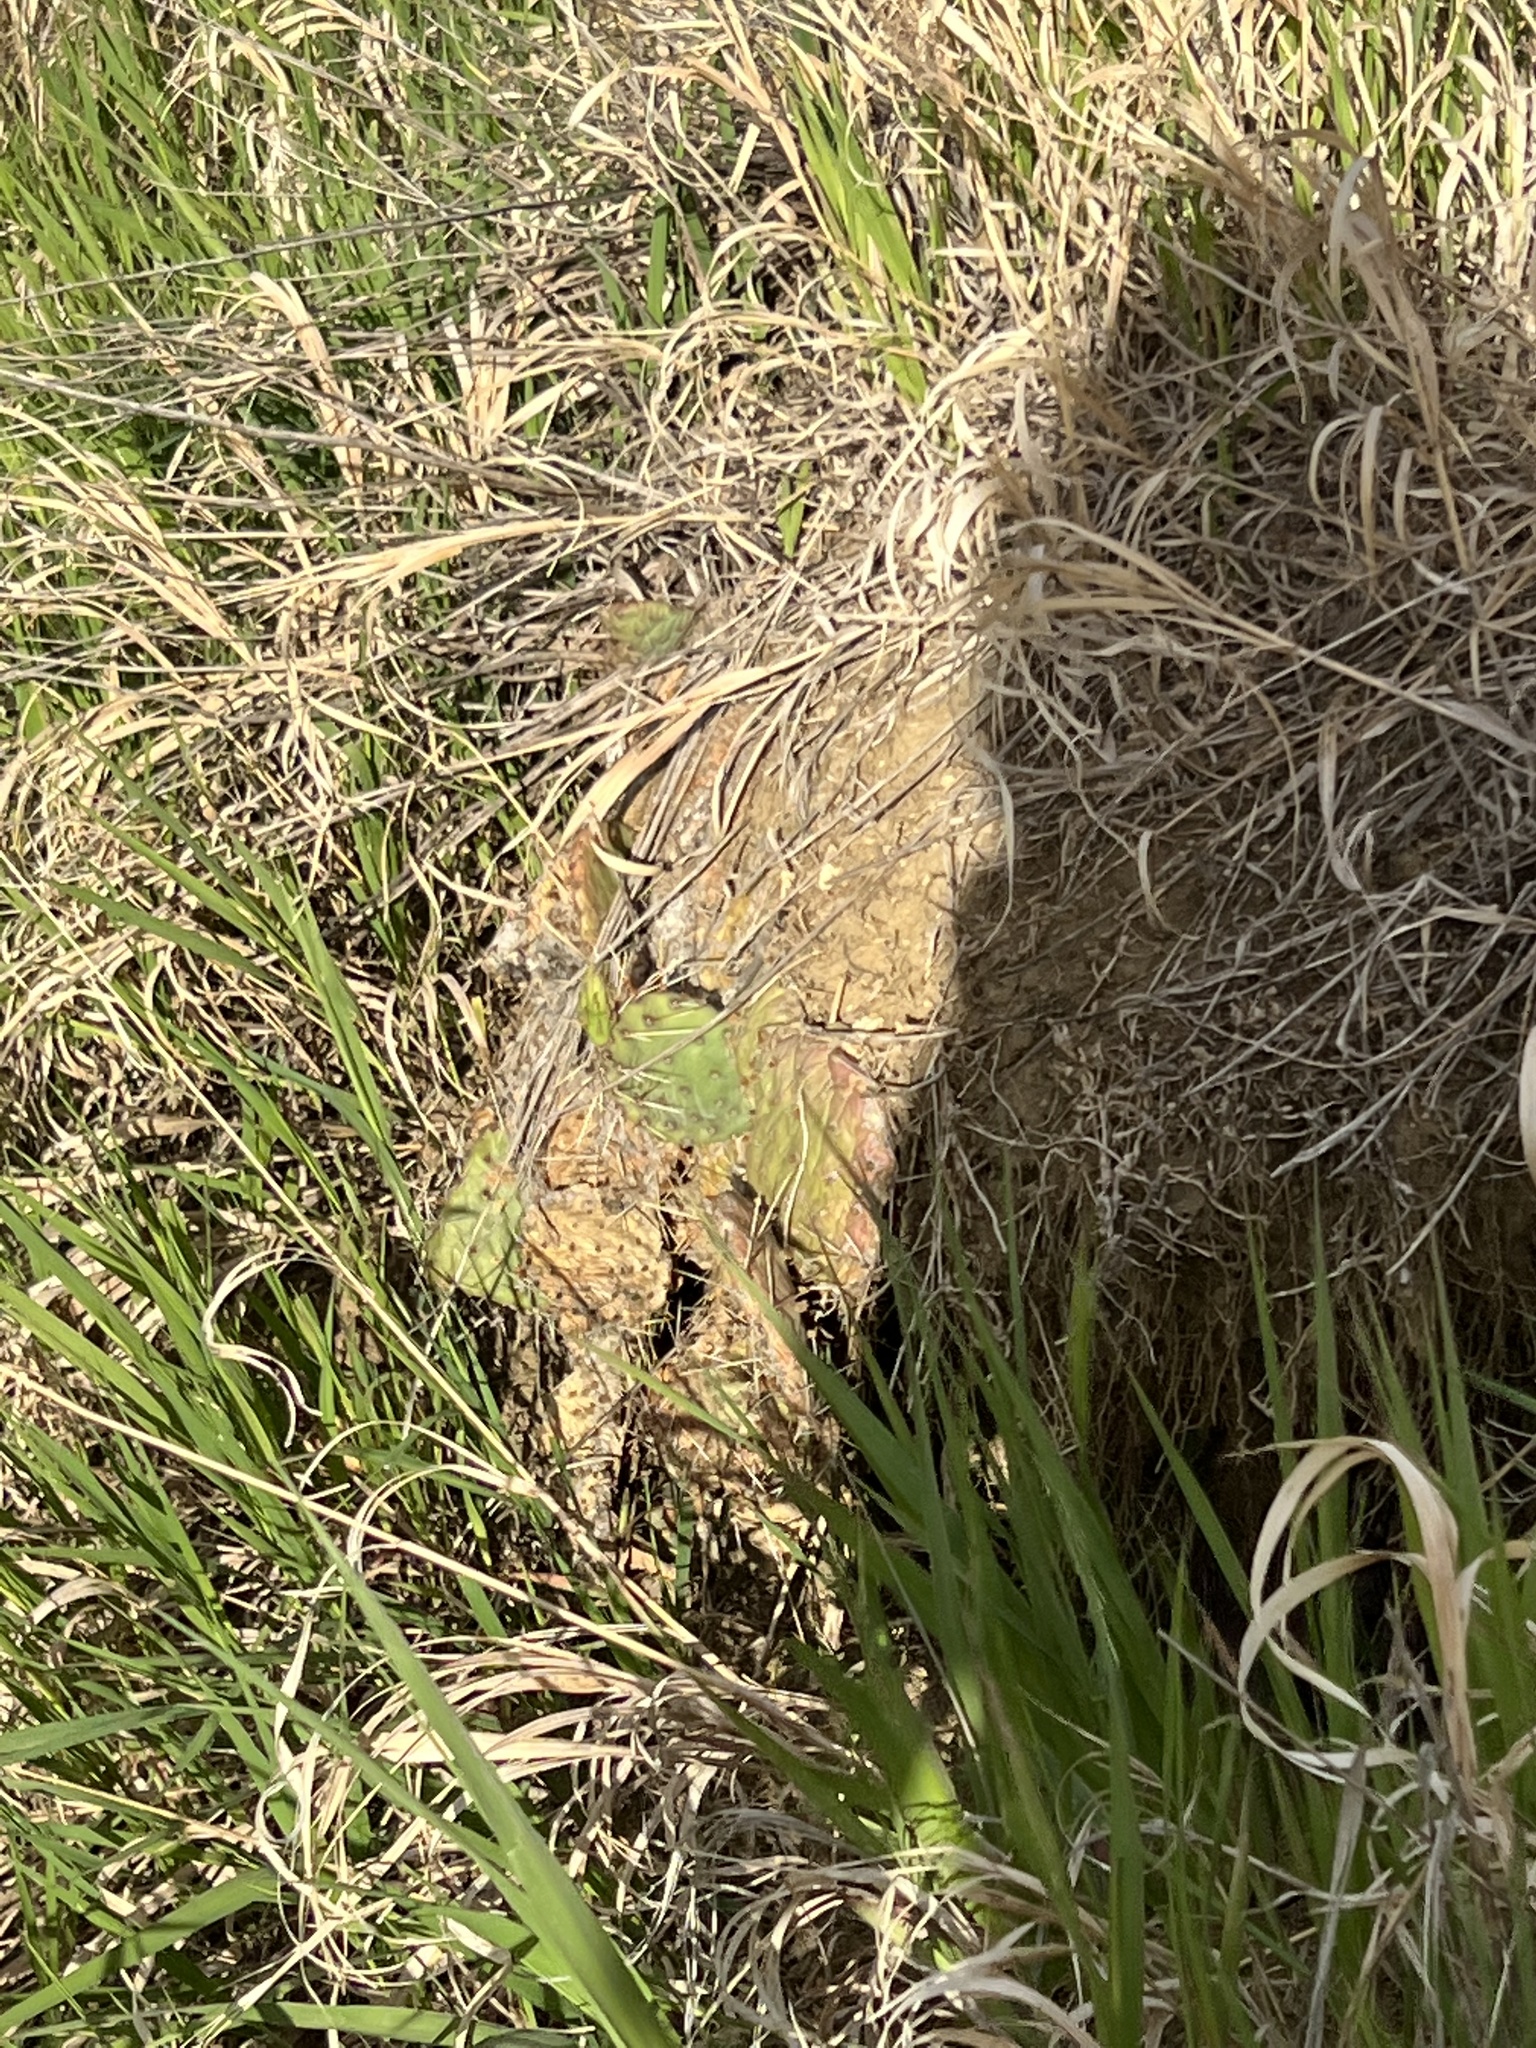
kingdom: Plantae
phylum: Tracheophyta
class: Magnoliopsida
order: Caryophyllales
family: Cactaceae
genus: Opuntia
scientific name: Opuntia macrorhiza
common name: Grassland pricklypear
